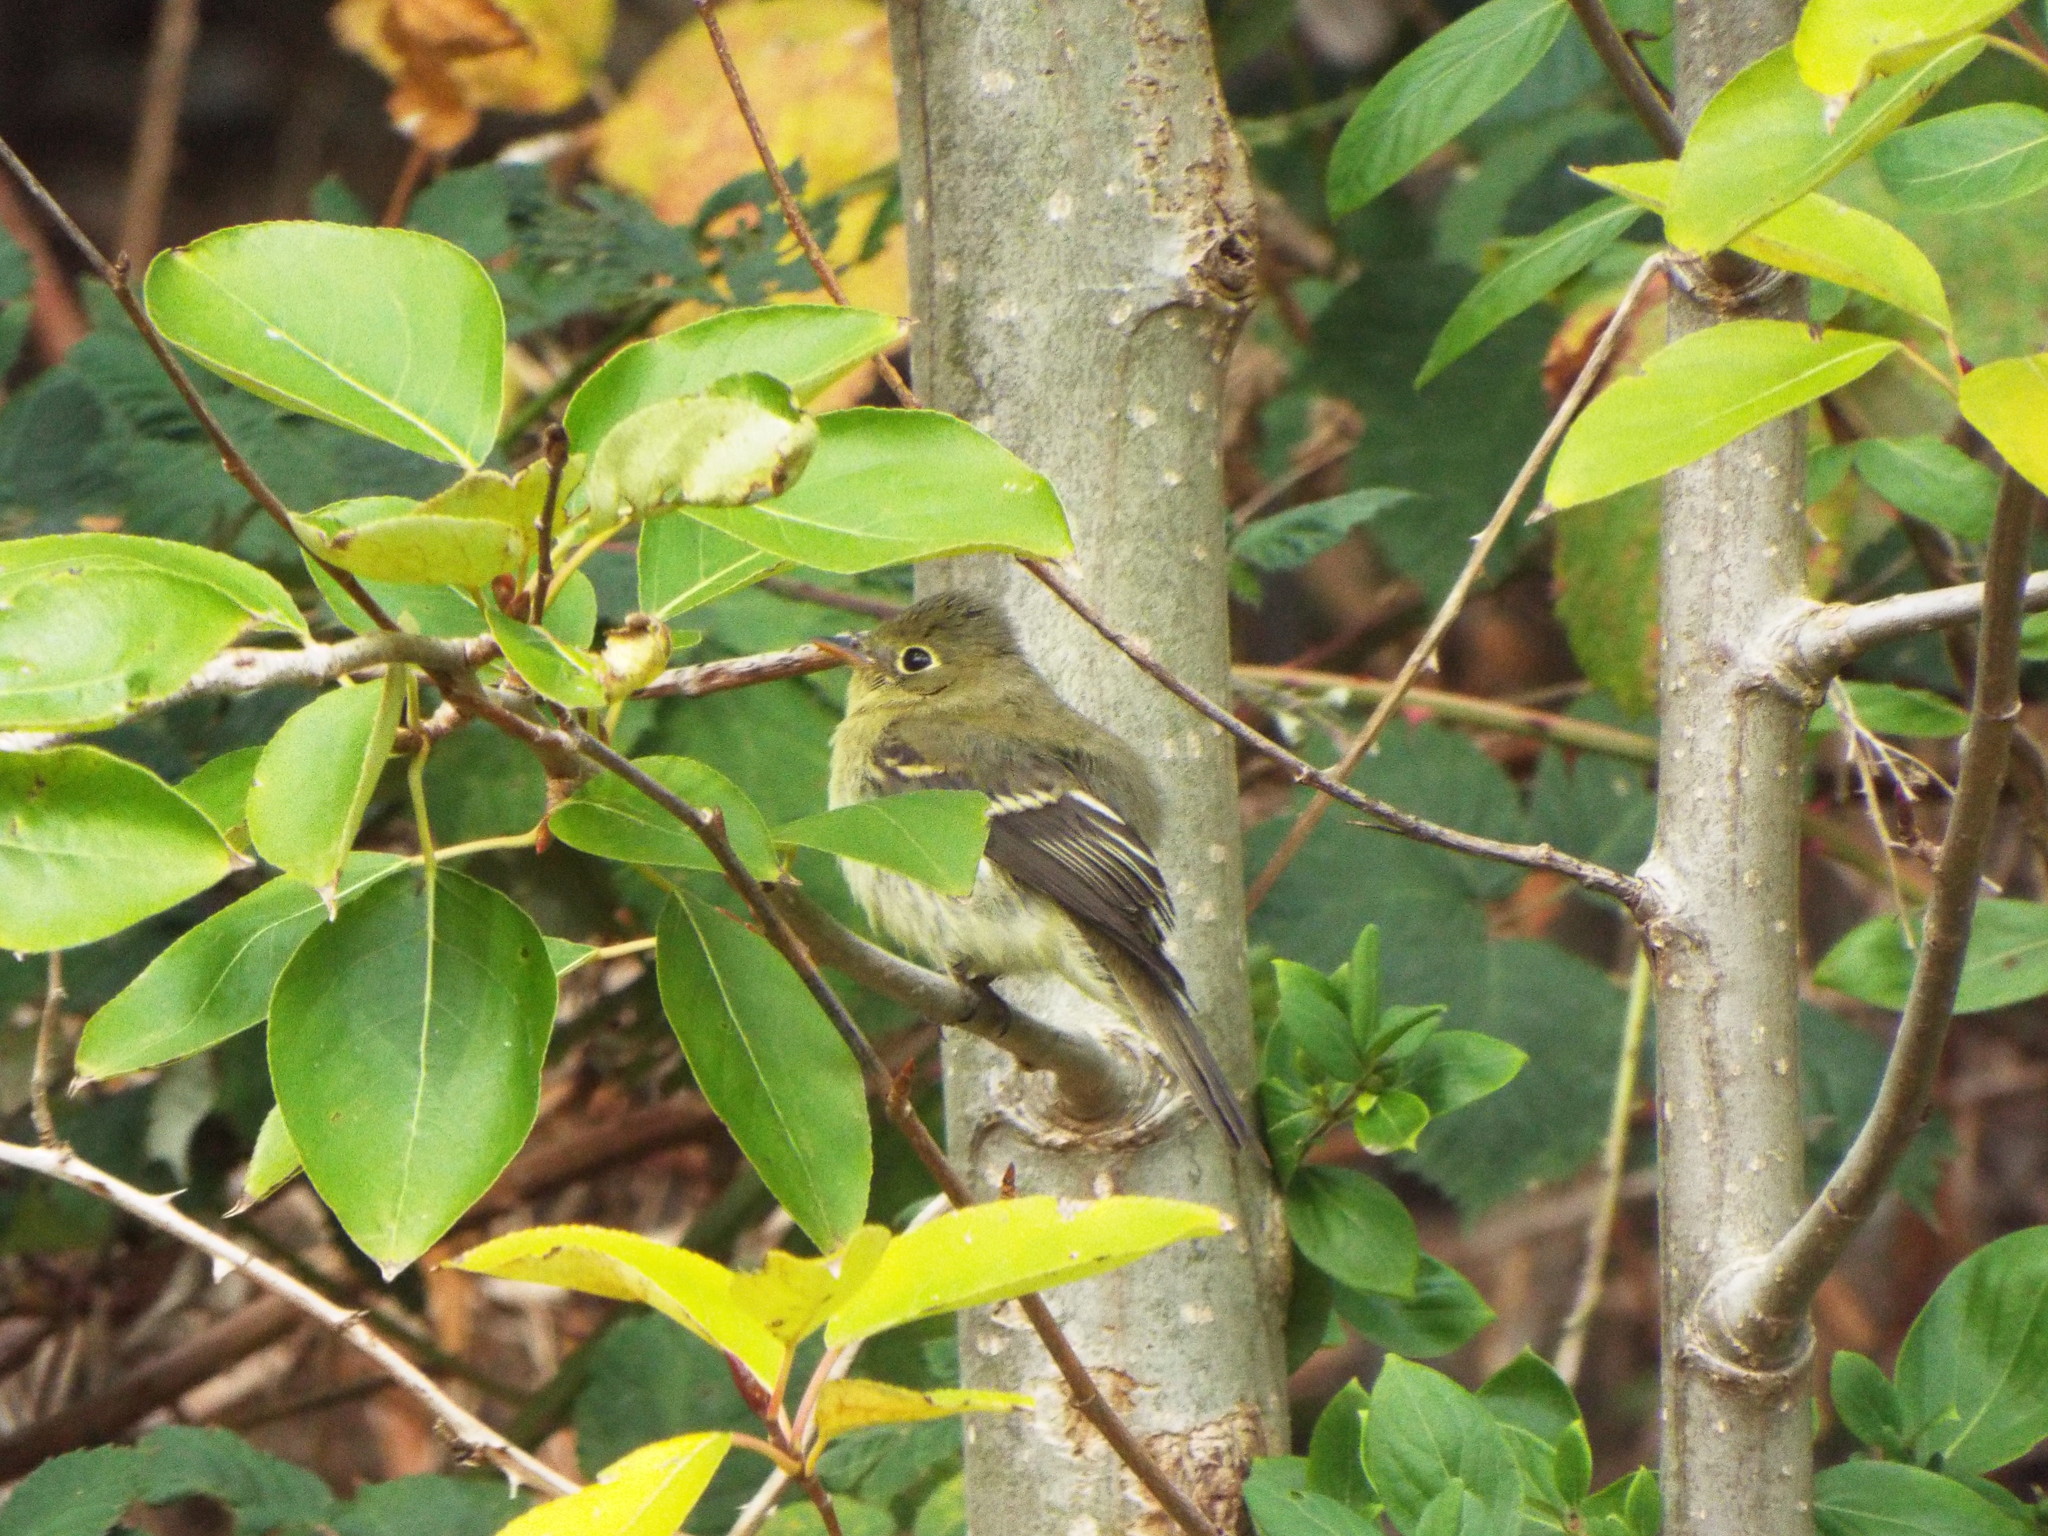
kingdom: Animalia
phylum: Chordata
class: Aves
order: Passeriformes
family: Tyrannidae
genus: Empidonax
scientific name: Empidonax flaviventris
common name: Yellow-bellied flycatcher
